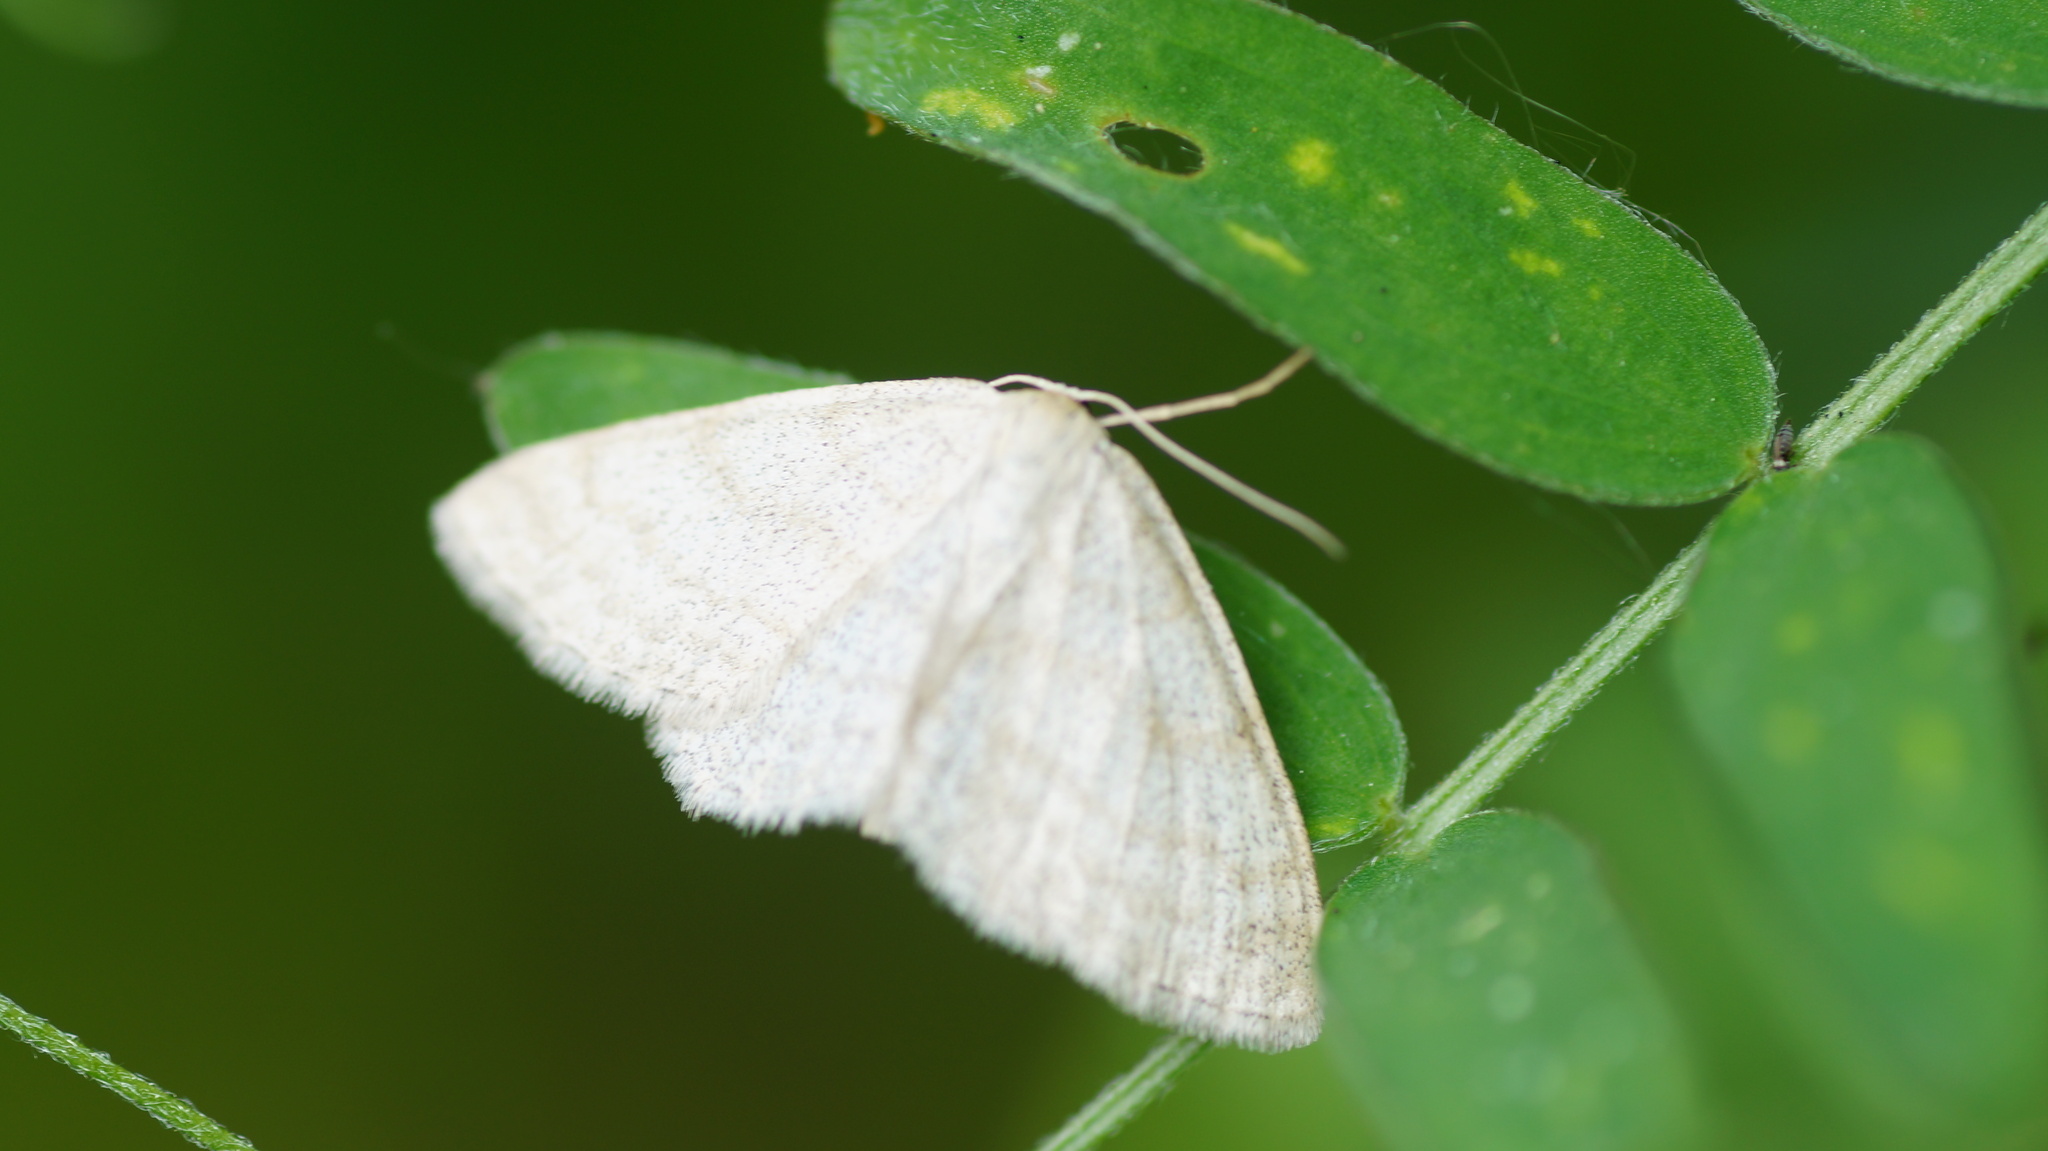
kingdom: Animalia
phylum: Arthropoda
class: Insecta
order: Lepidoptera
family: Geometridae
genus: Scopula
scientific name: Scopula ternata
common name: Smoky wave
